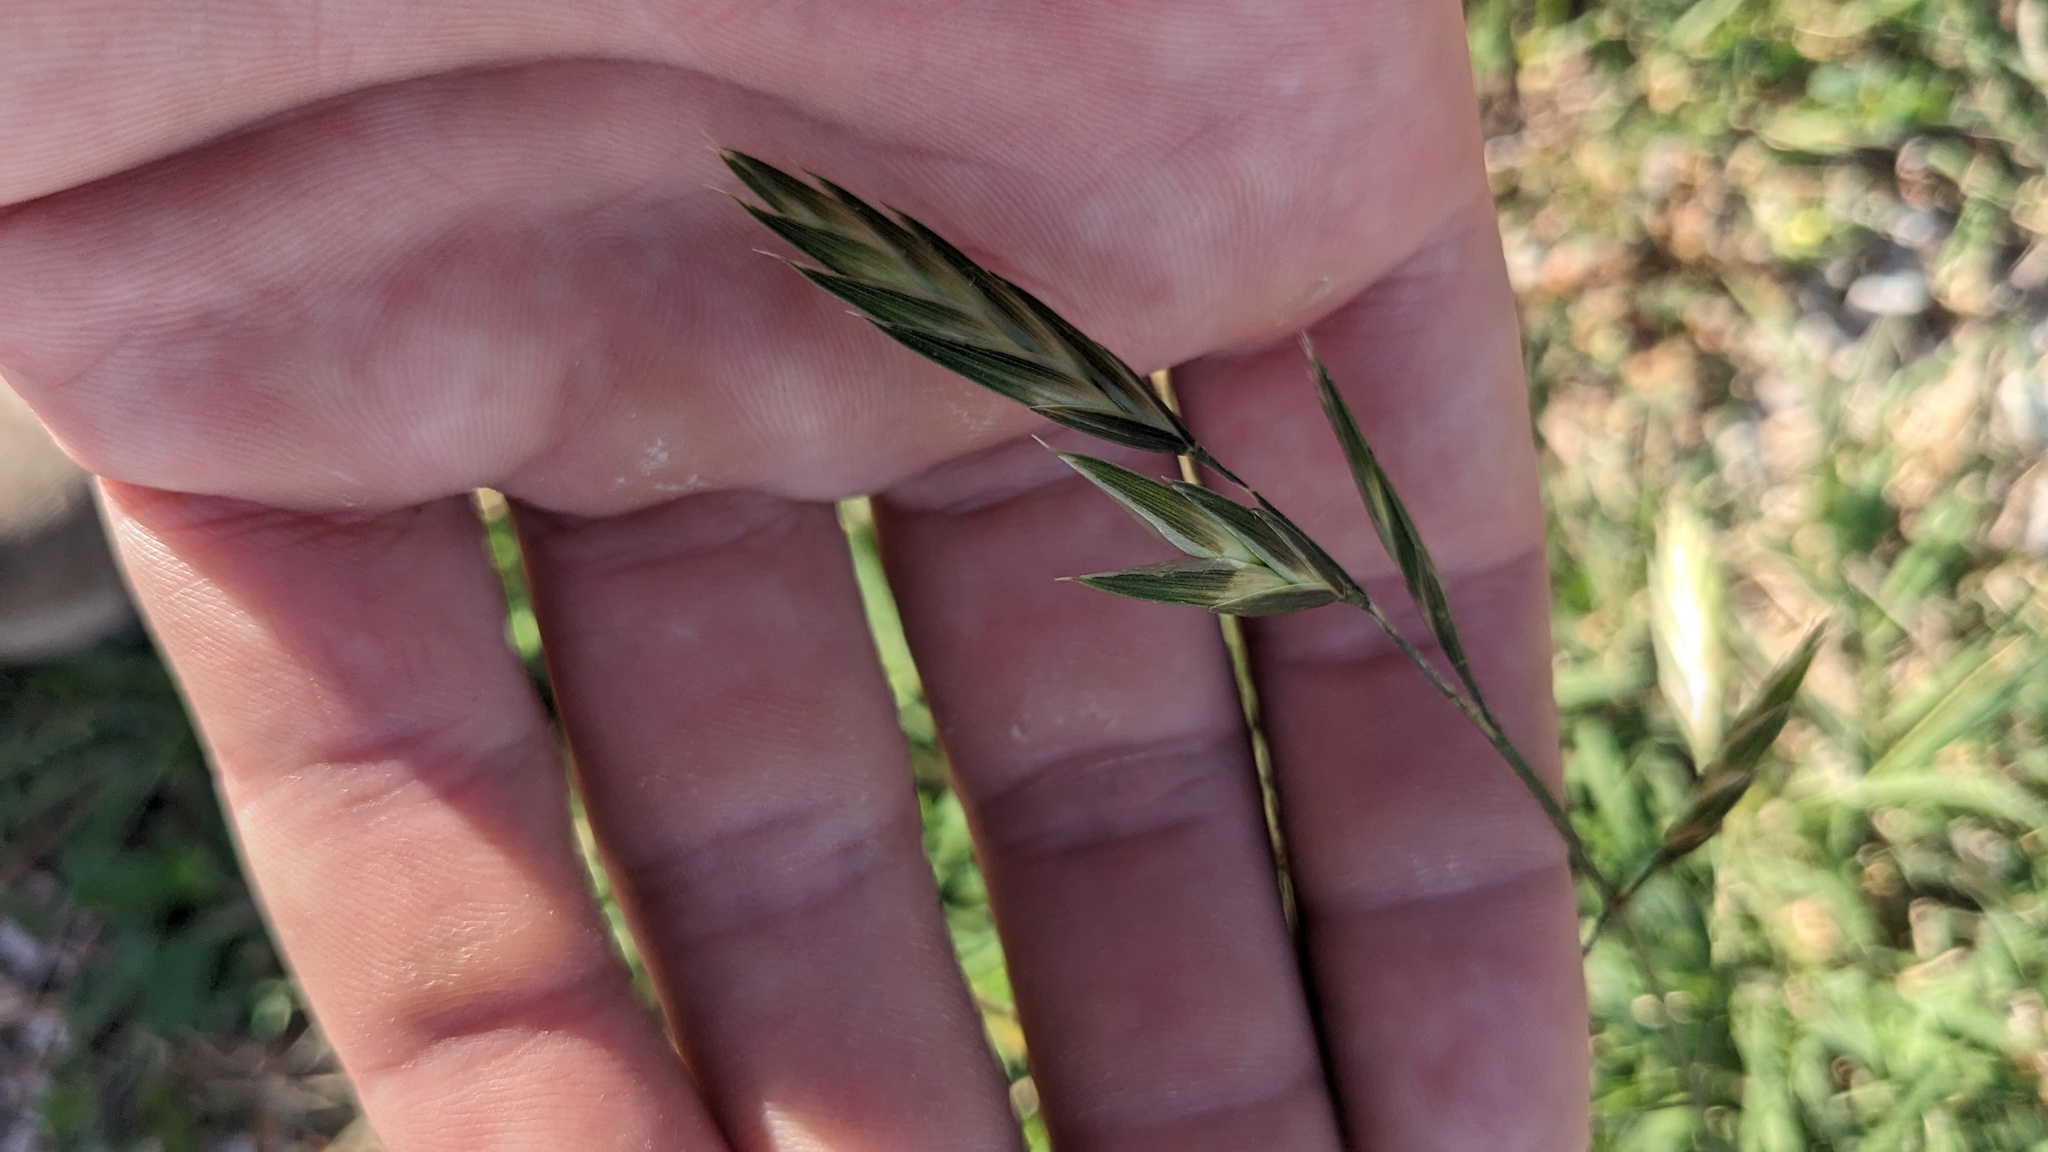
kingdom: Plantae
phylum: Tracheophyta
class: Liliopsida
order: Poales
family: Poaceae
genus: Bromus
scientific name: Bromus catharticus
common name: Rescuegrass
